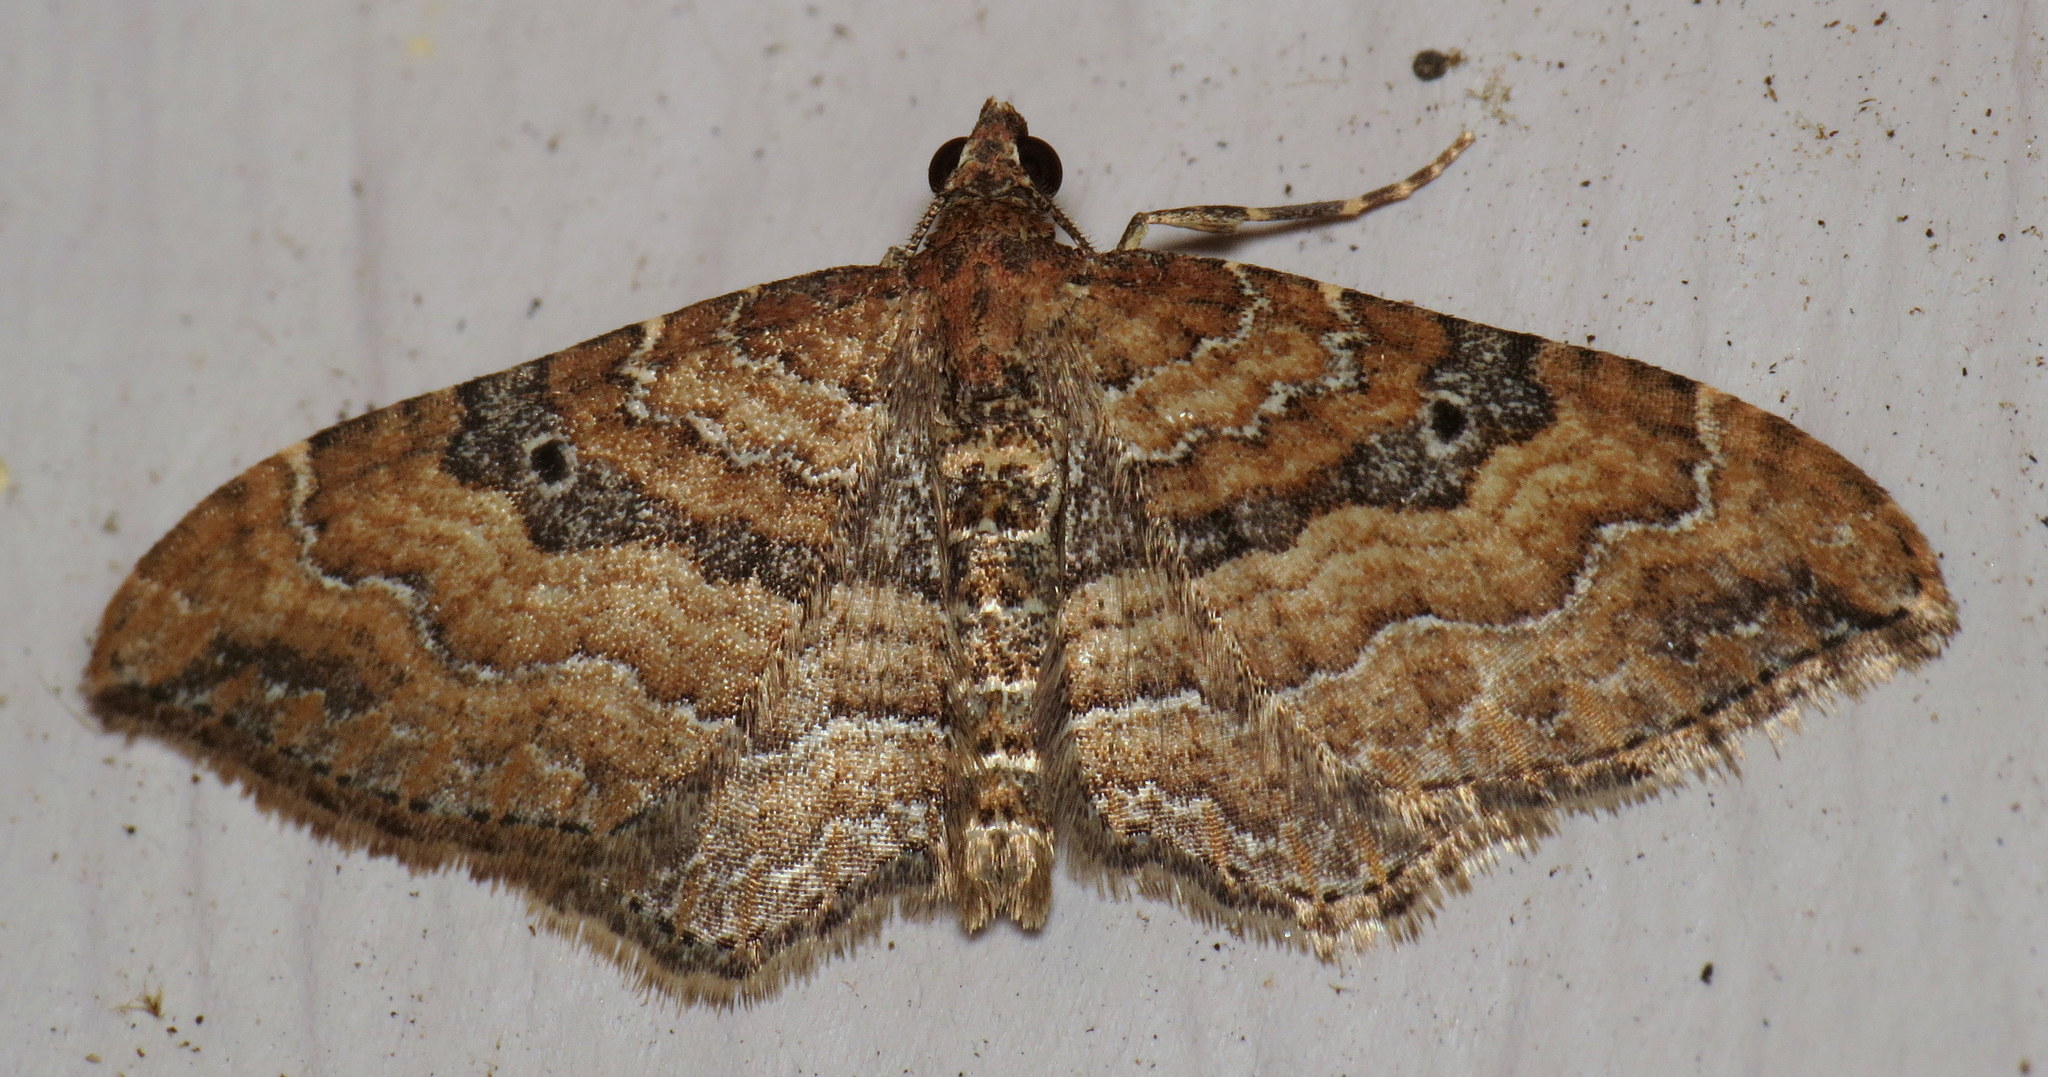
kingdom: Animalia
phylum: Arthropoda
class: Insecta
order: Lepidoptera
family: Geometridae
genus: Orthonama
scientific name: Orthonama obstipata
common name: The gem
